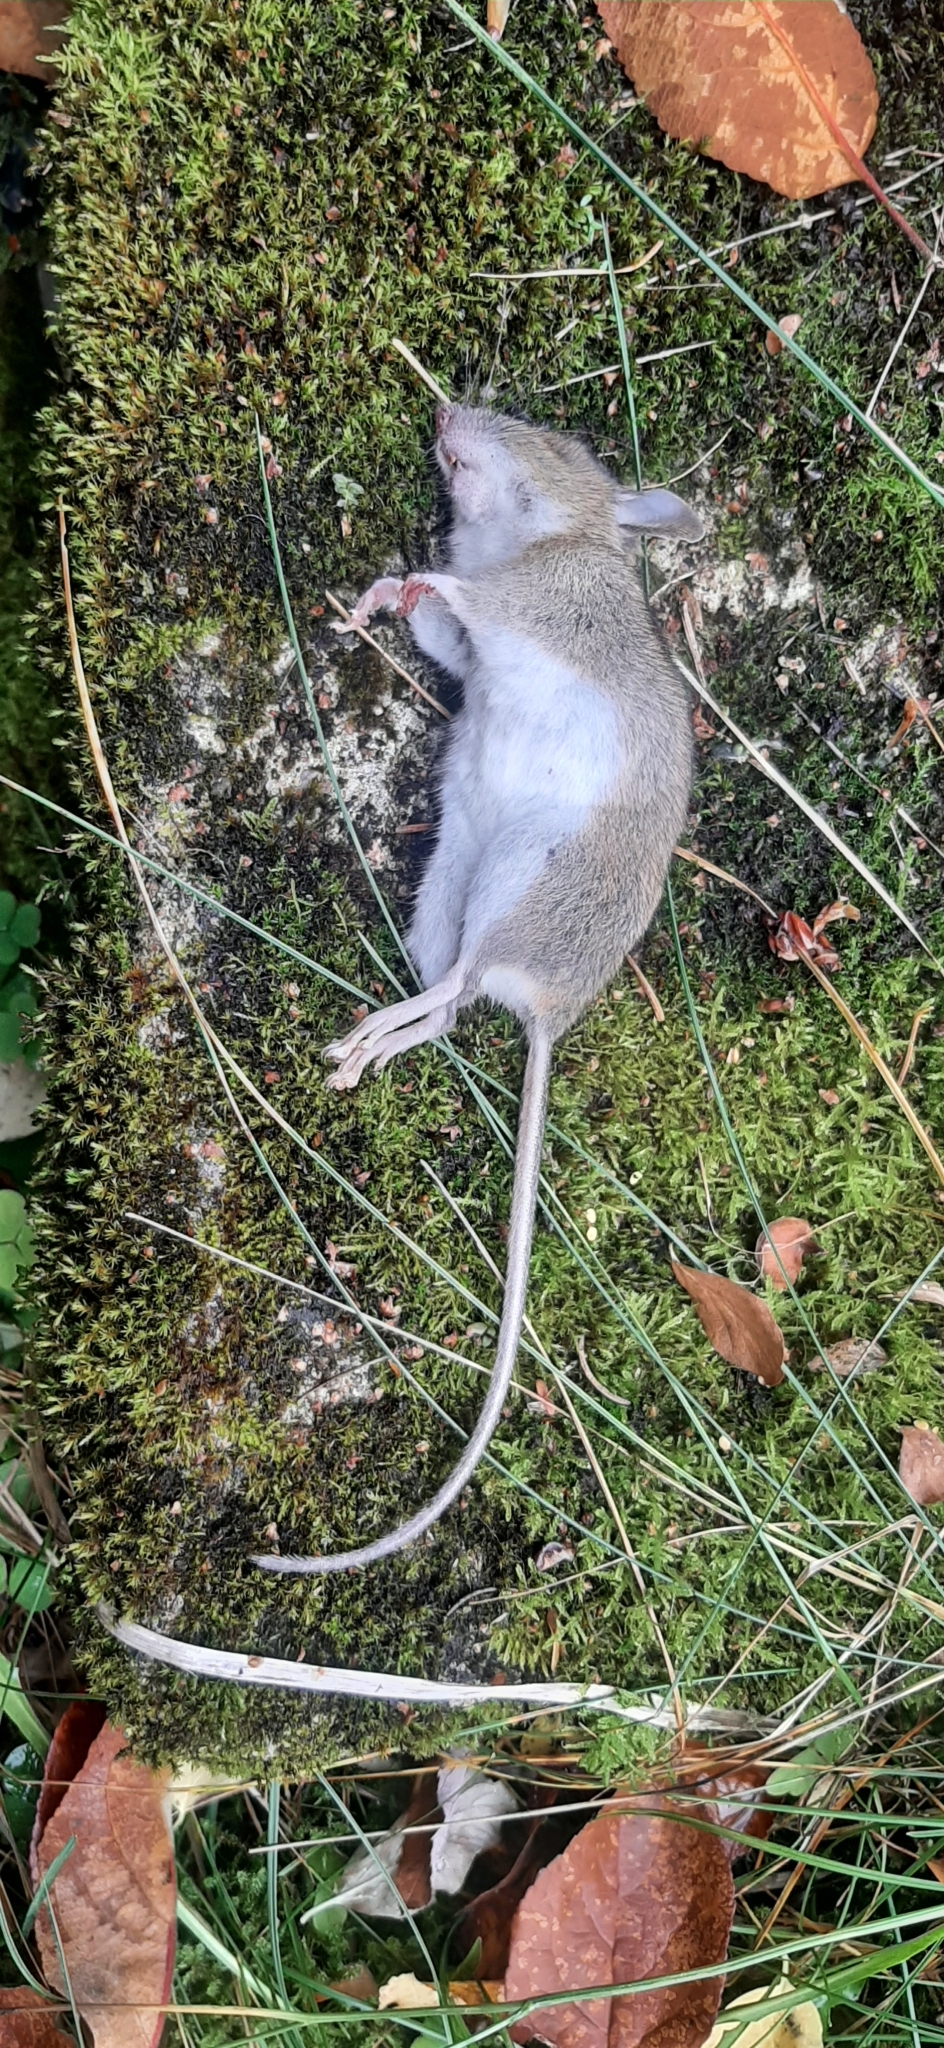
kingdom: Animalia
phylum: Chordata
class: Mammalia
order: Rodentia
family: Muridae
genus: Apodemus
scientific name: Apodemus flavicollis
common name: Yellow-necked field mouse
